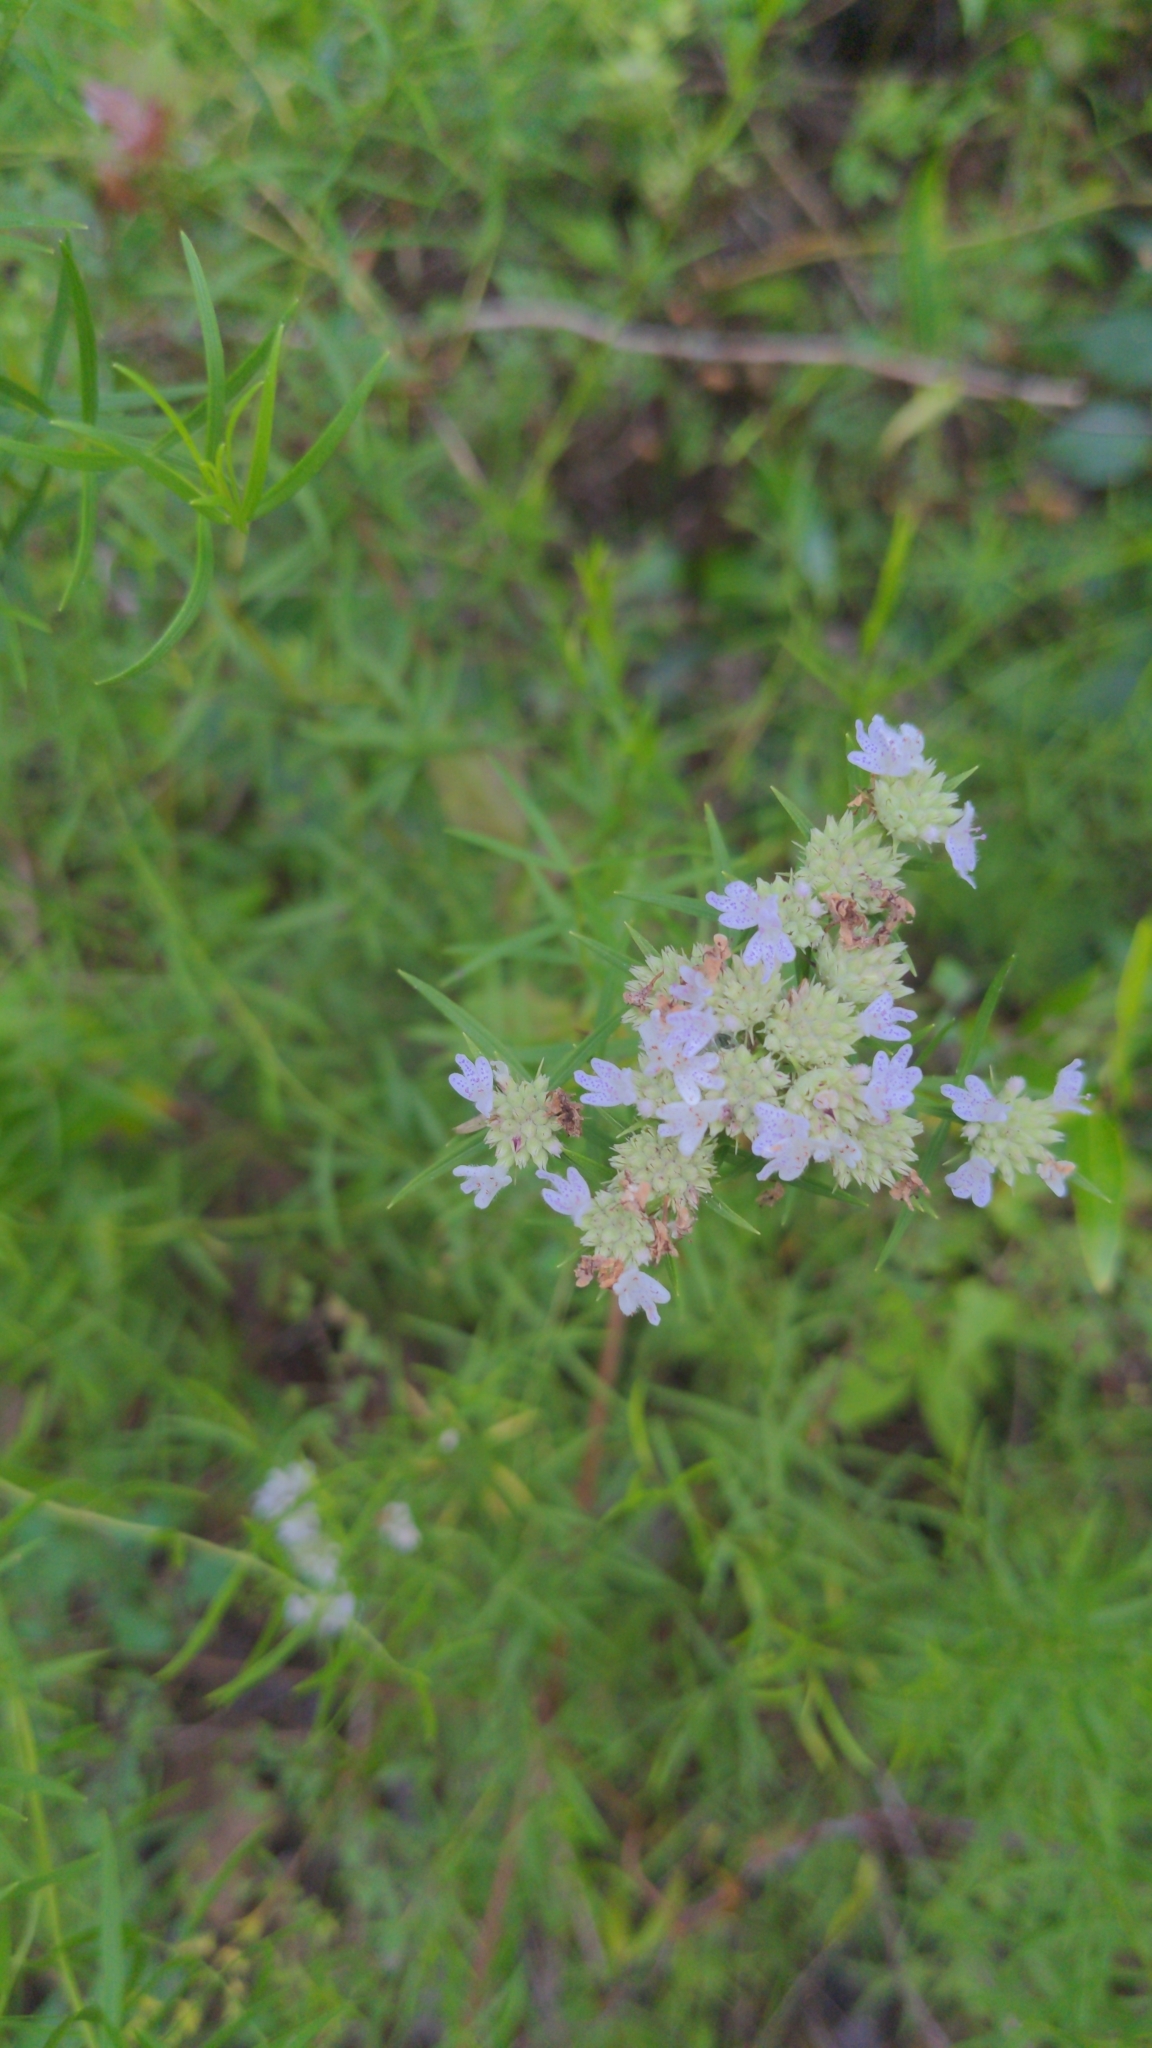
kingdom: Plantae
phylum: Tracheophyta
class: Magnoliopsida
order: Lamiales
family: Lamiaceae
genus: Pycnanthemum
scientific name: Pycnanthemum tenuifolium
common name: Narrow-leaf mountain-mint
